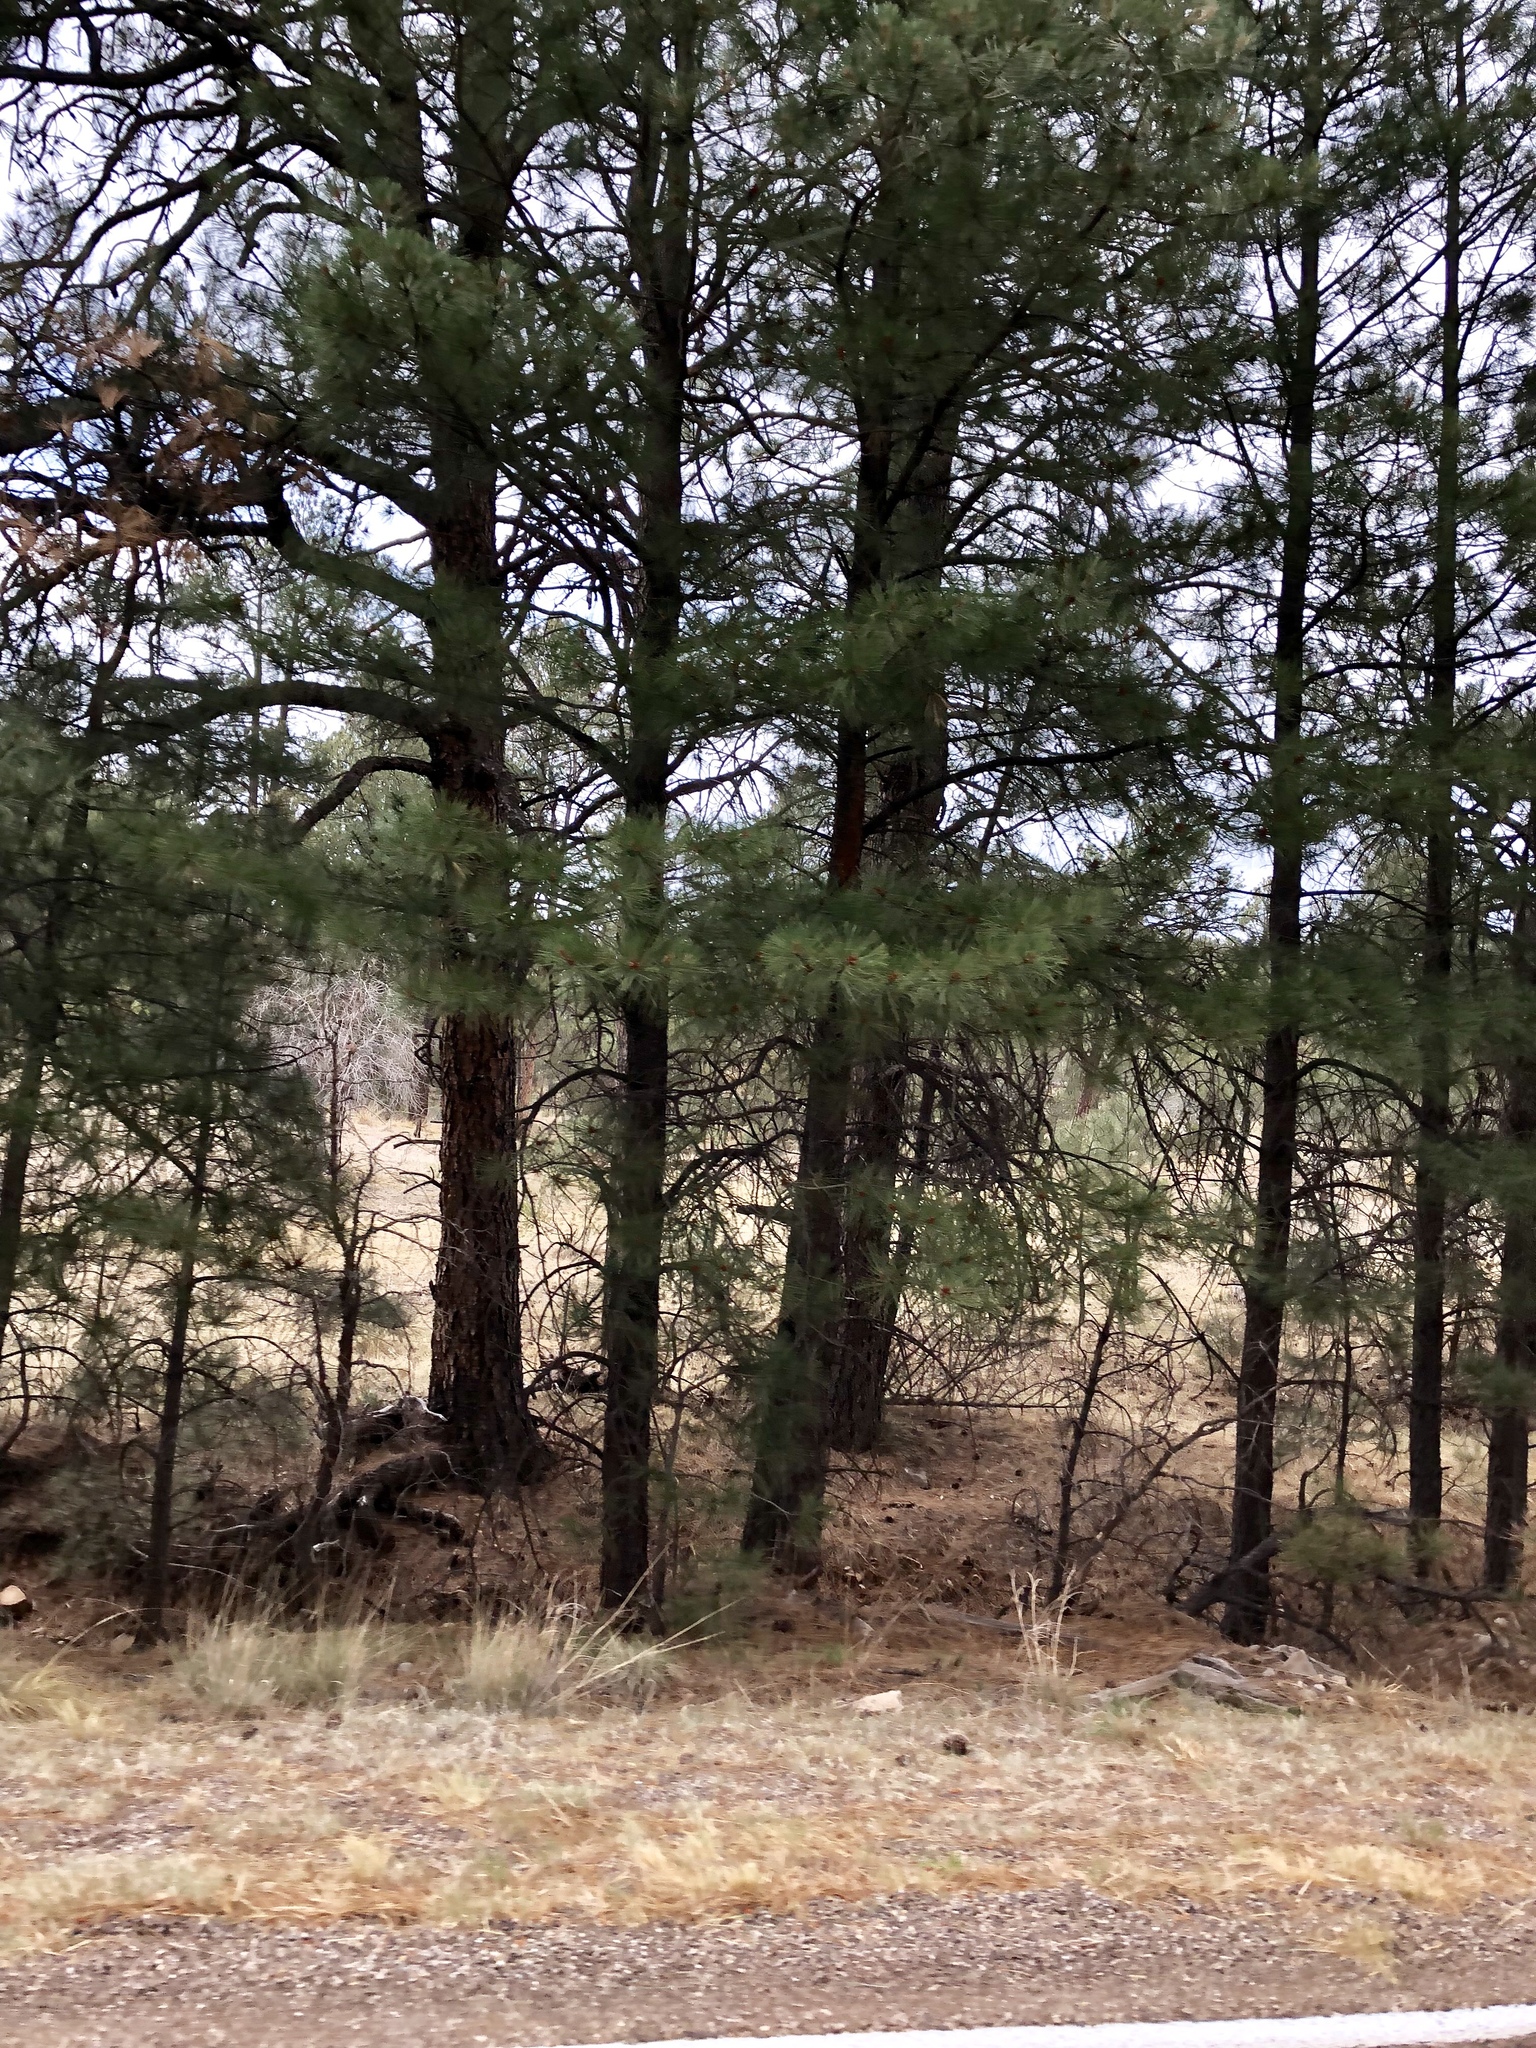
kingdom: Plantae
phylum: Tracheophyta
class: Pinopsida
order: Pinales
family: Pinaceae
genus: Pinus
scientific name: Pinus ponderosa
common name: Western yellow-pine
